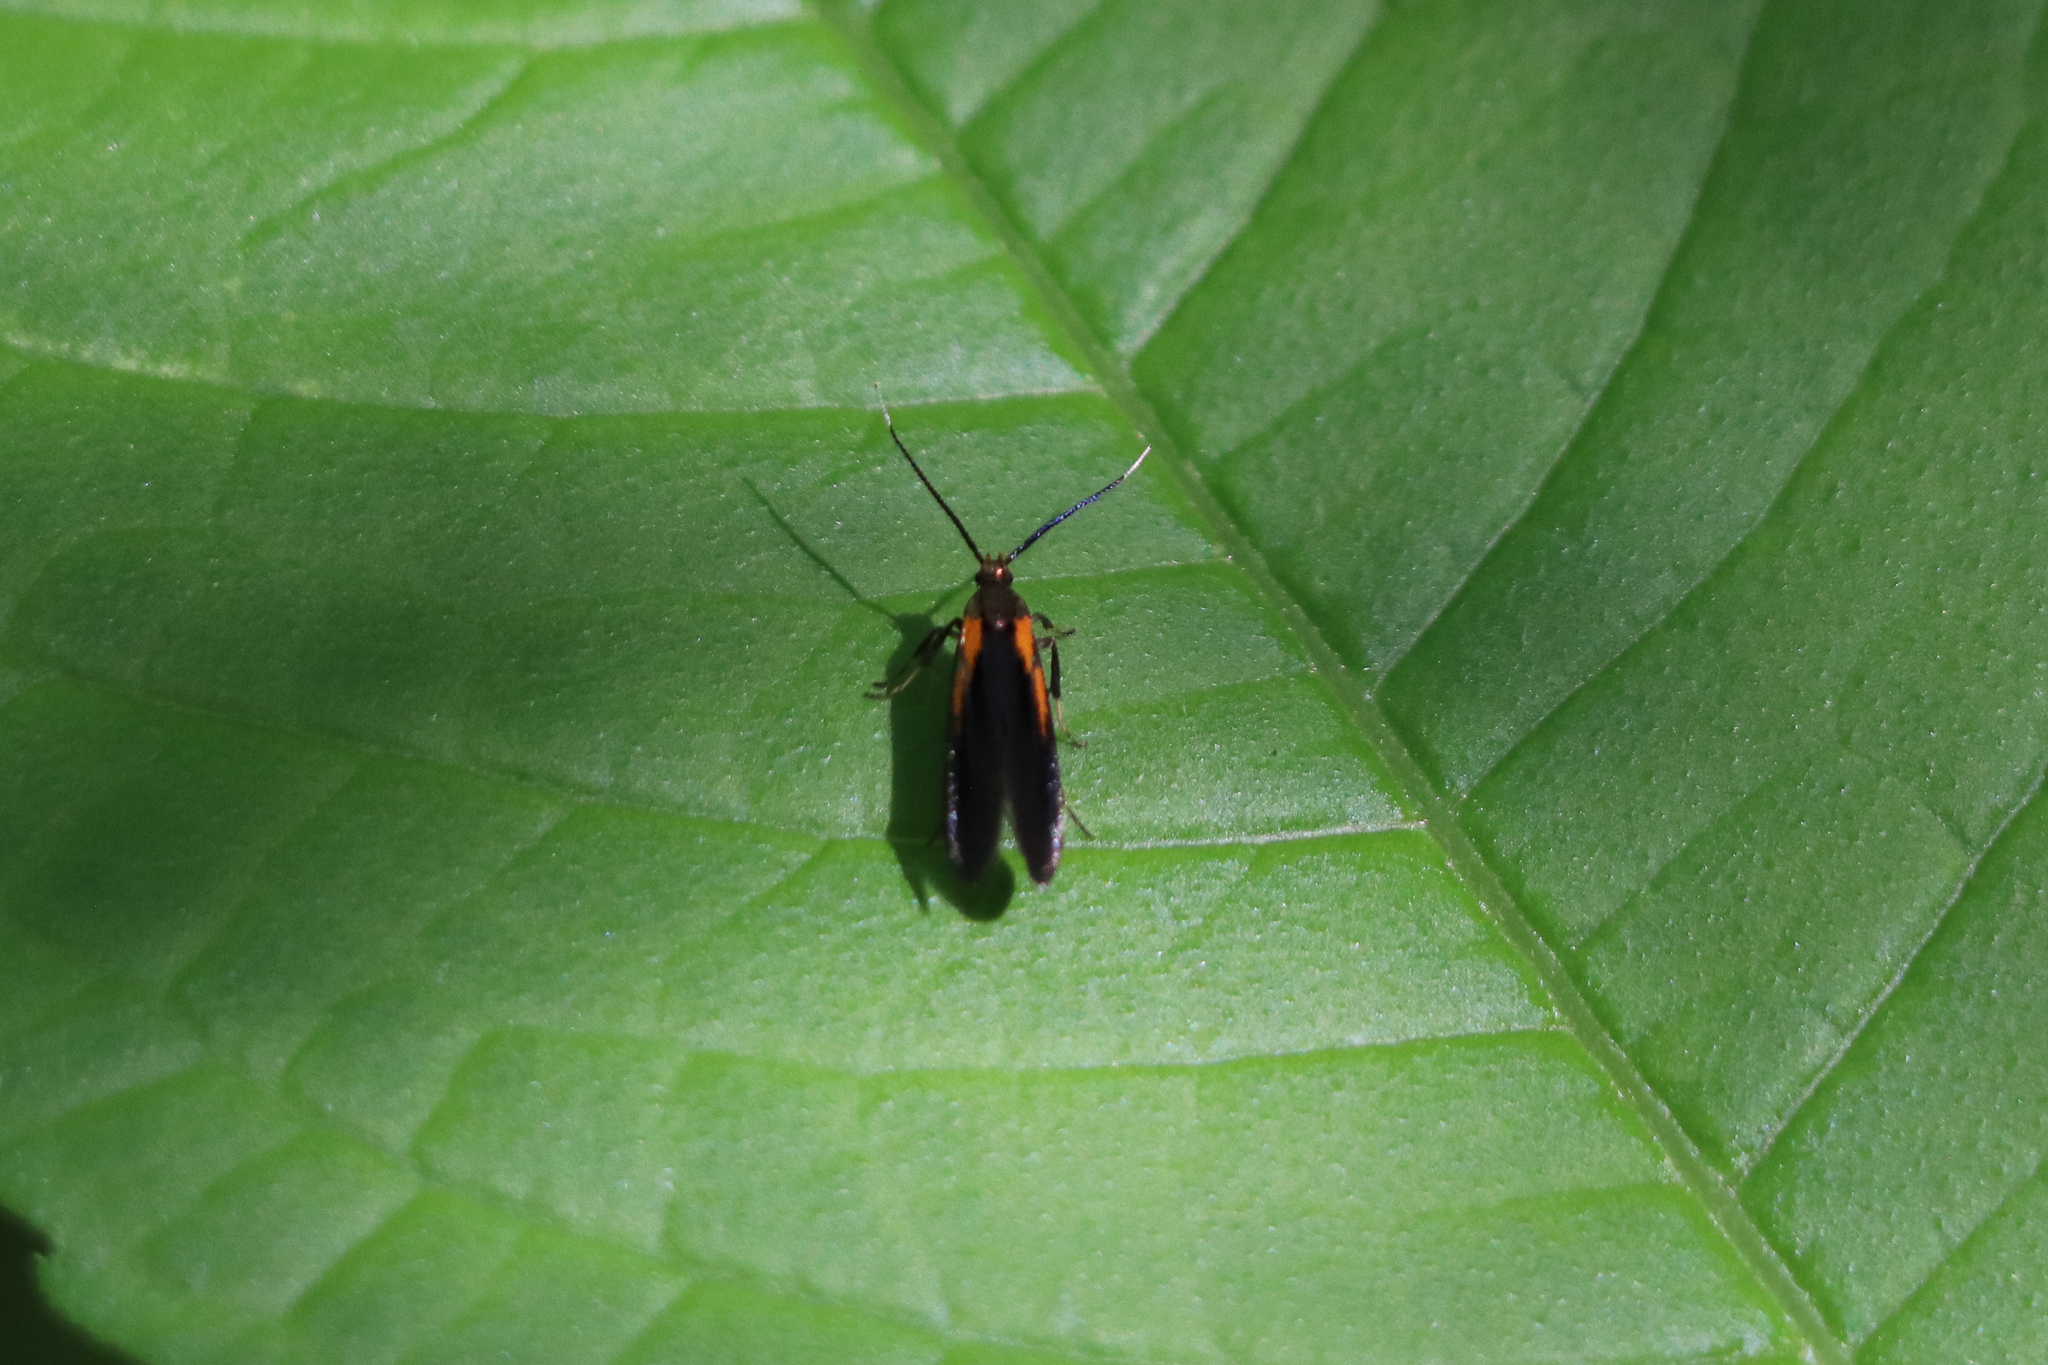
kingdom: Animalia
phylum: Arthropoda
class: Insecta
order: Lepidoptera
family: Oecophoridae
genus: Mathildana
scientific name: Mathildana newmanella
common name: Newman's mathildana moth
